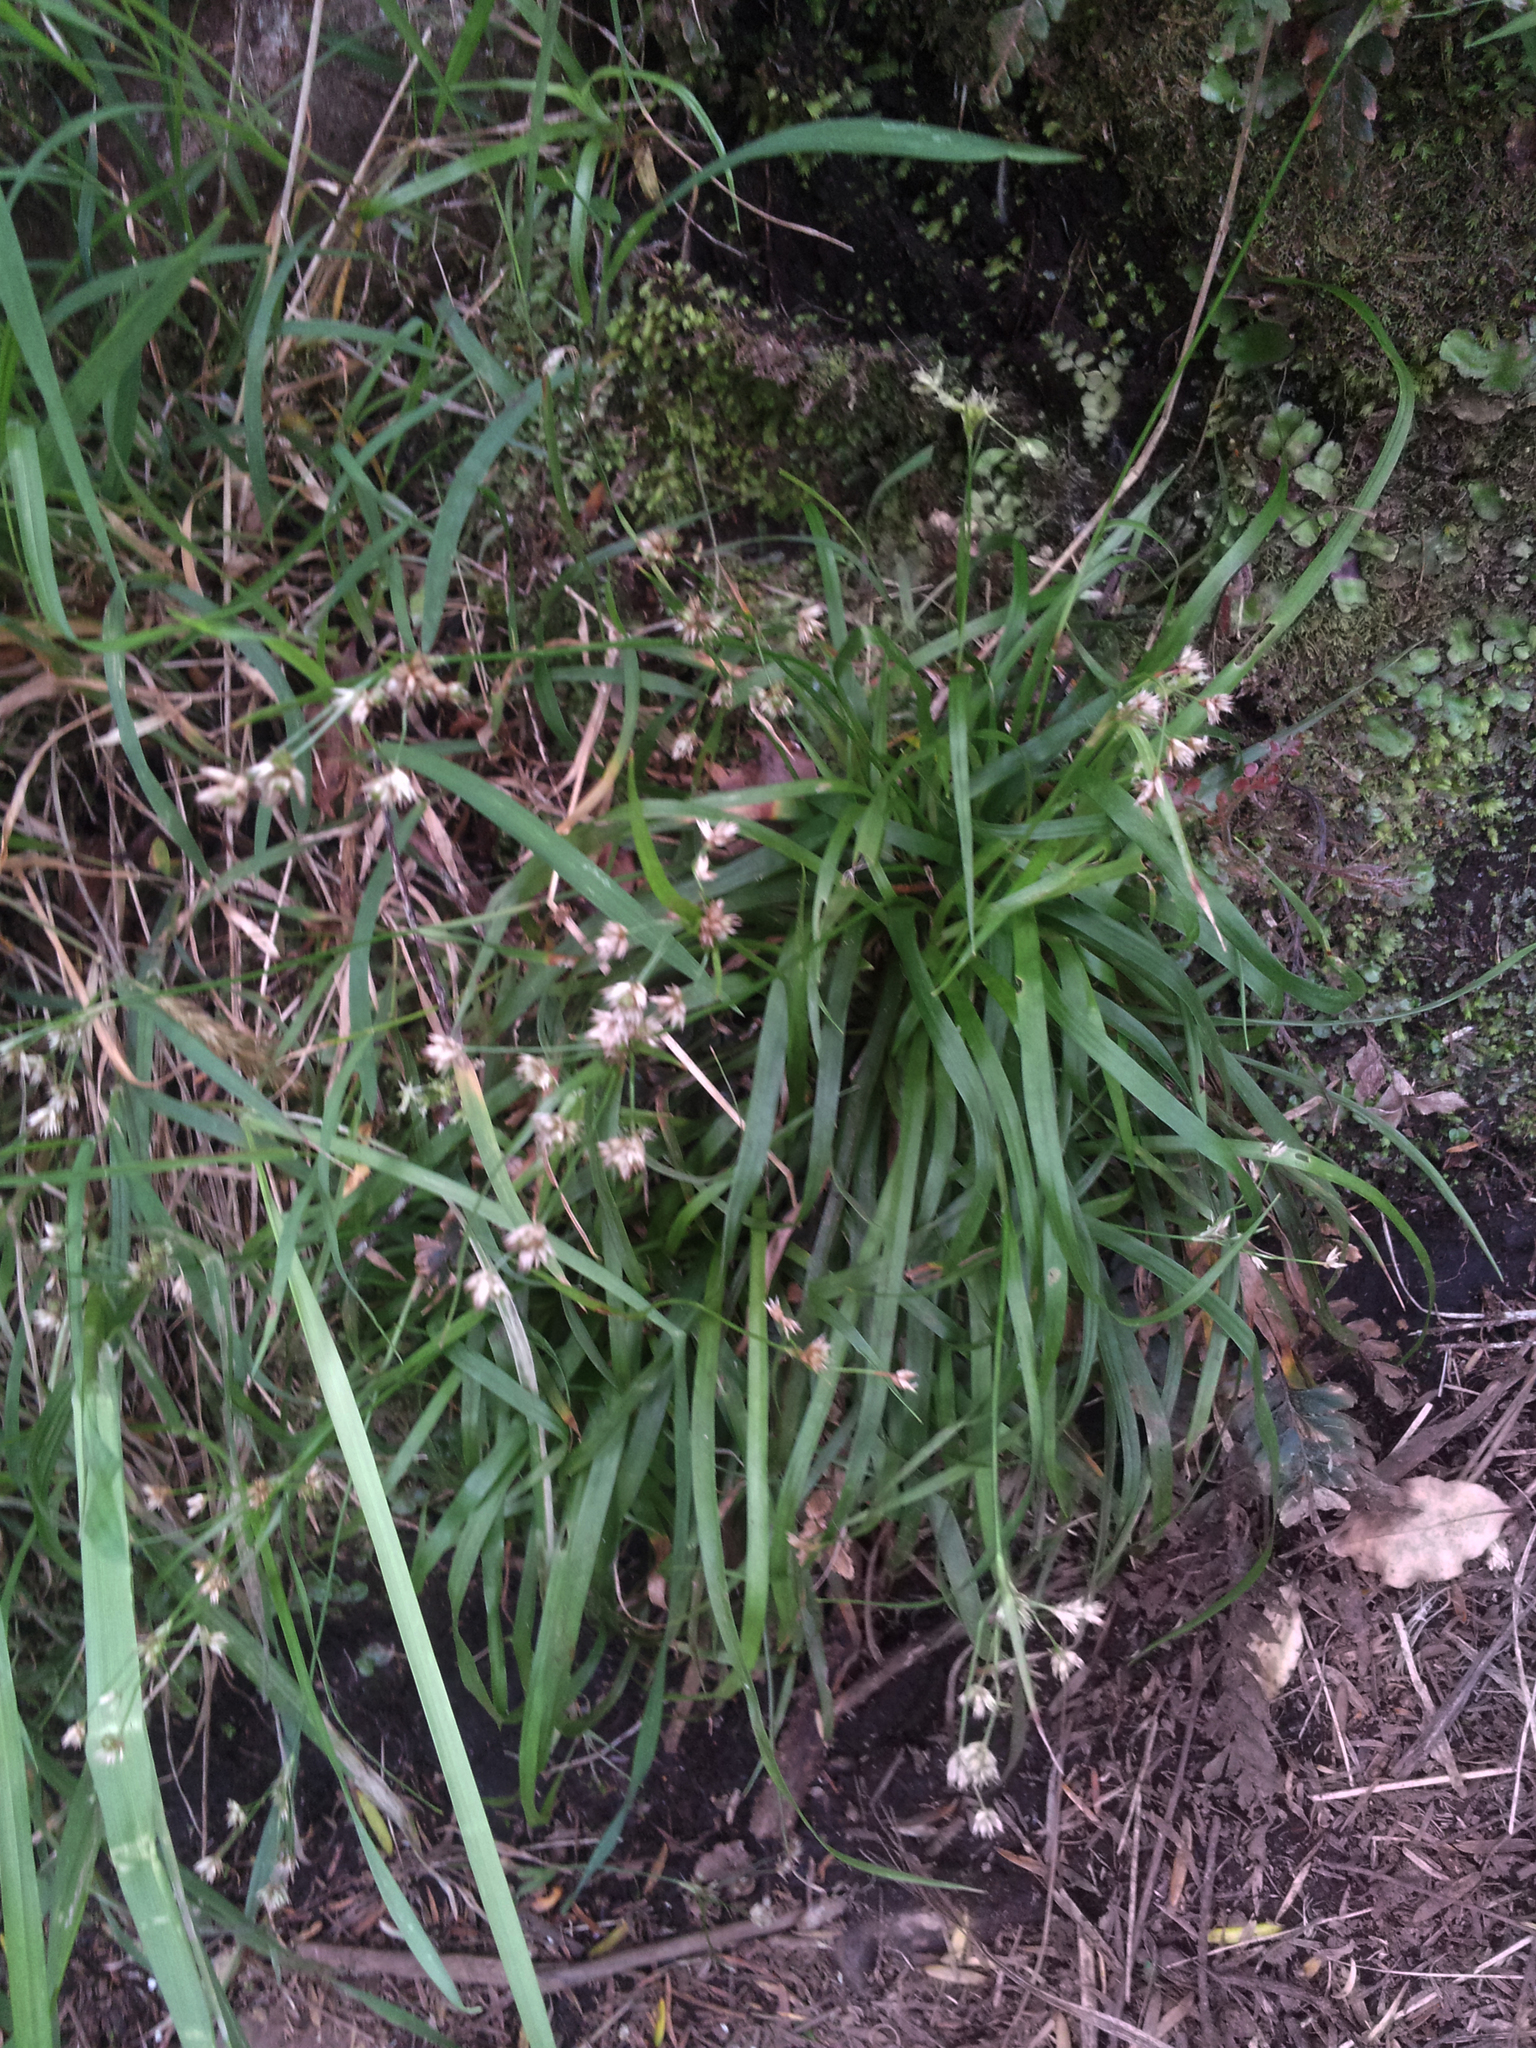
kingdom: Plantae
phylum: Tracheophyta
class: Liliopsida
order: Poales
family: Juncaceae
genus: Luzula
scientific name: Luzula picta
